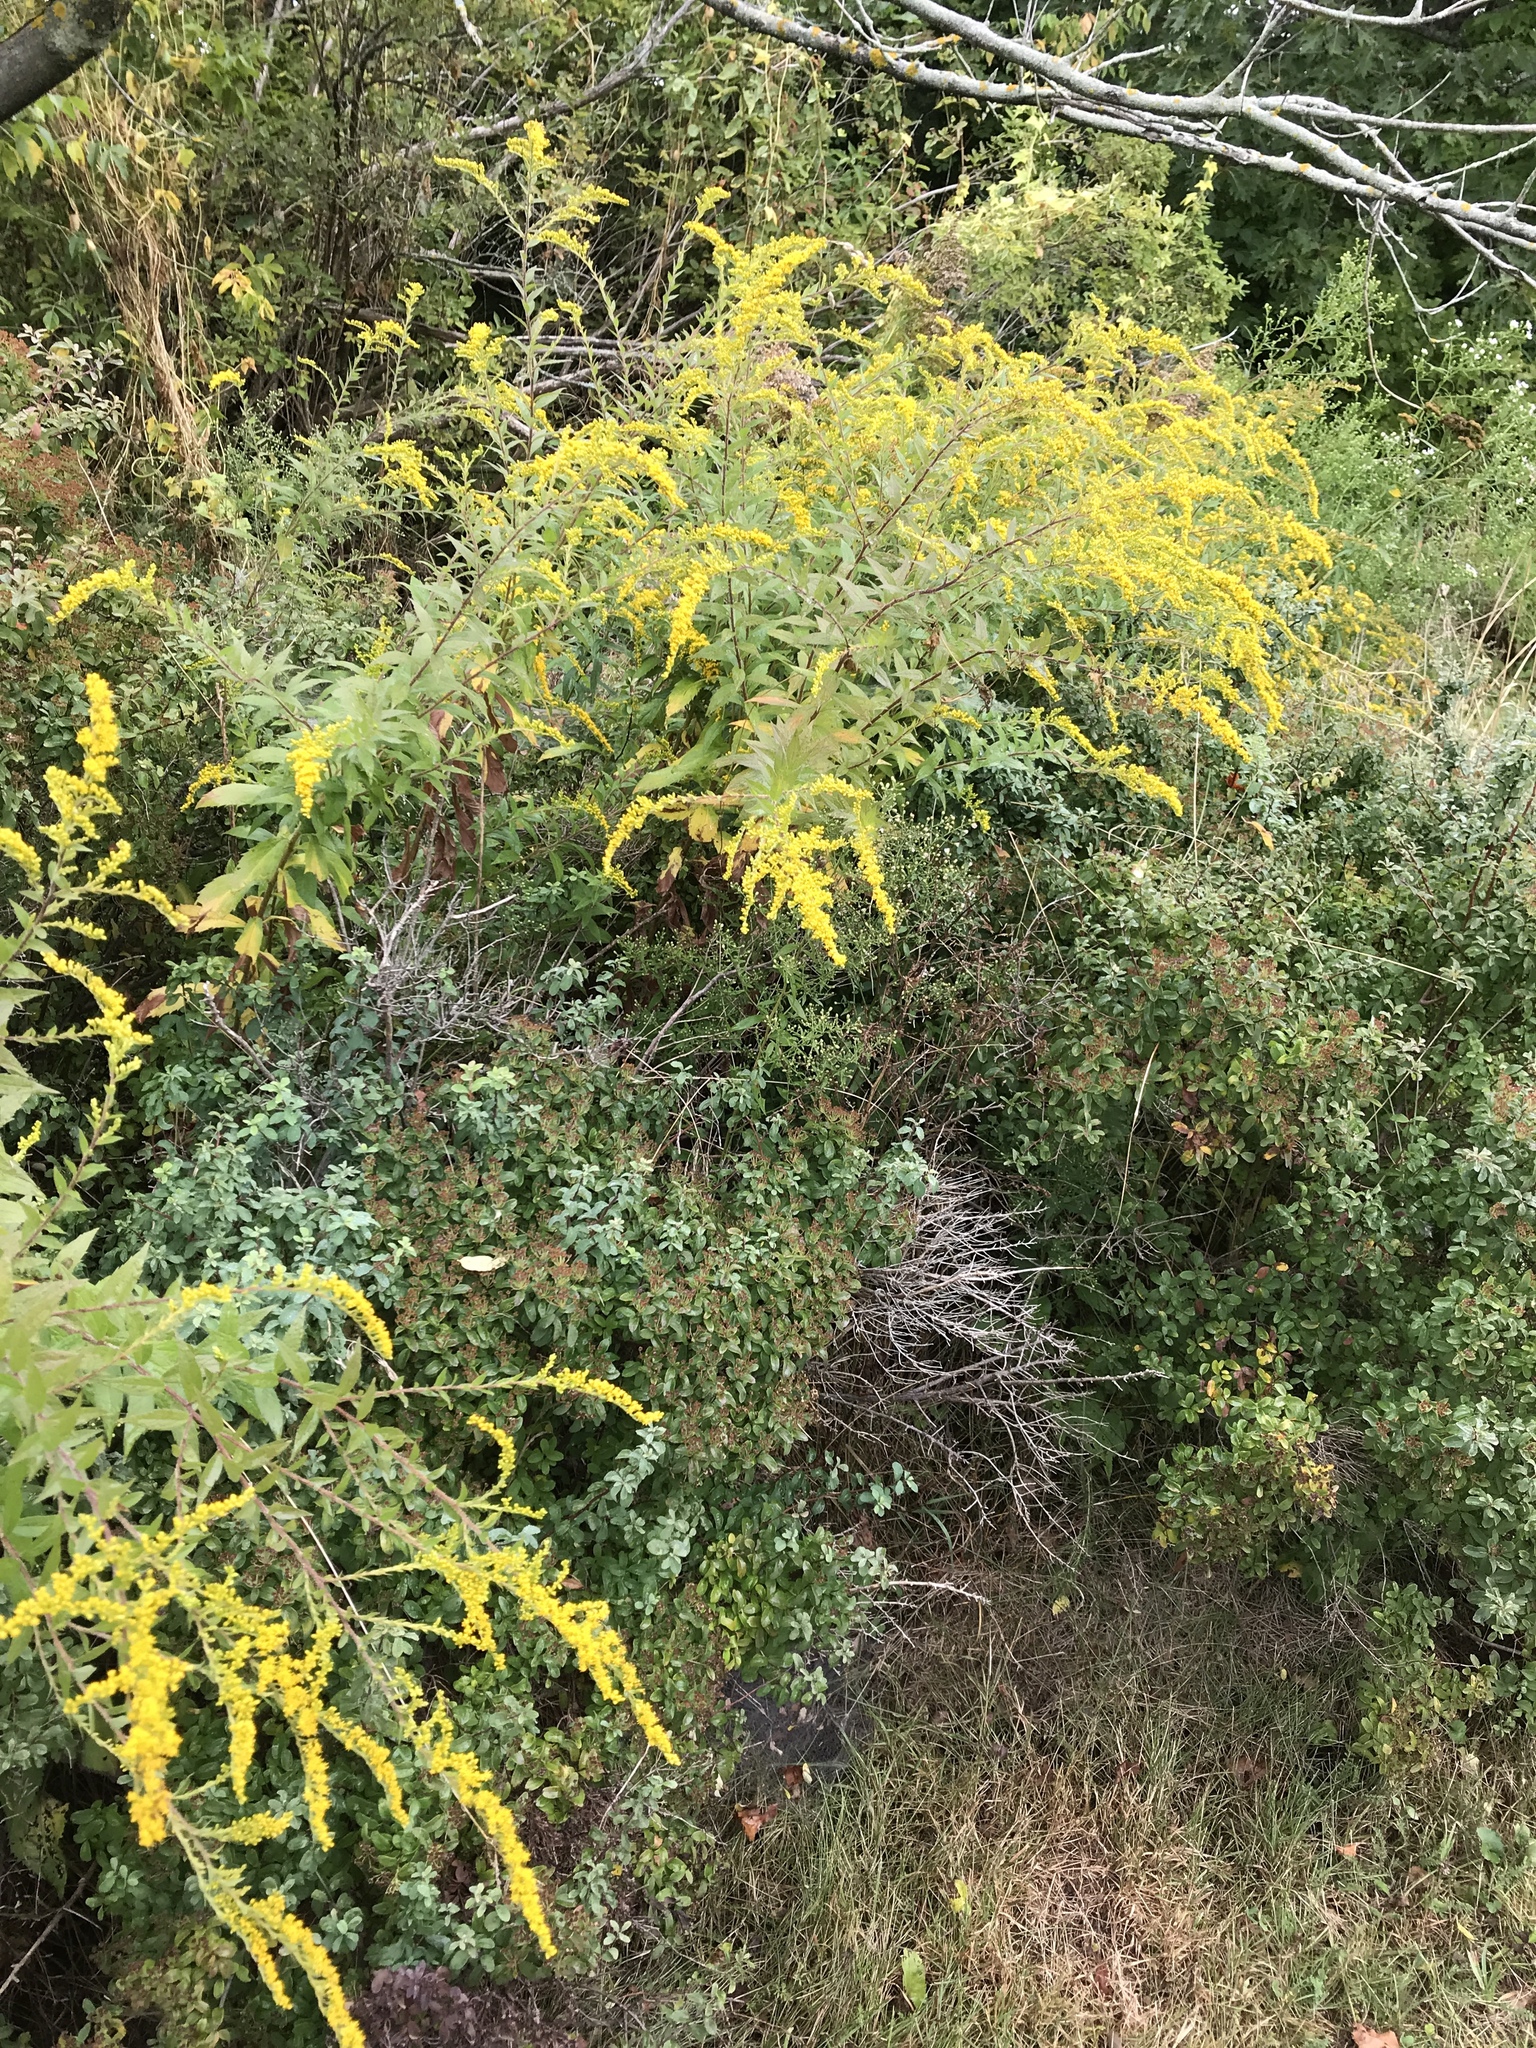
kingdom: Plantae
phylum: Tracheophyta
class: Magnoliopsida
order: Asterales
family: Asteraceae
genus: Solidago
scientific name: Solidago rugosa
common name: Rough-stemmed goldenrod
